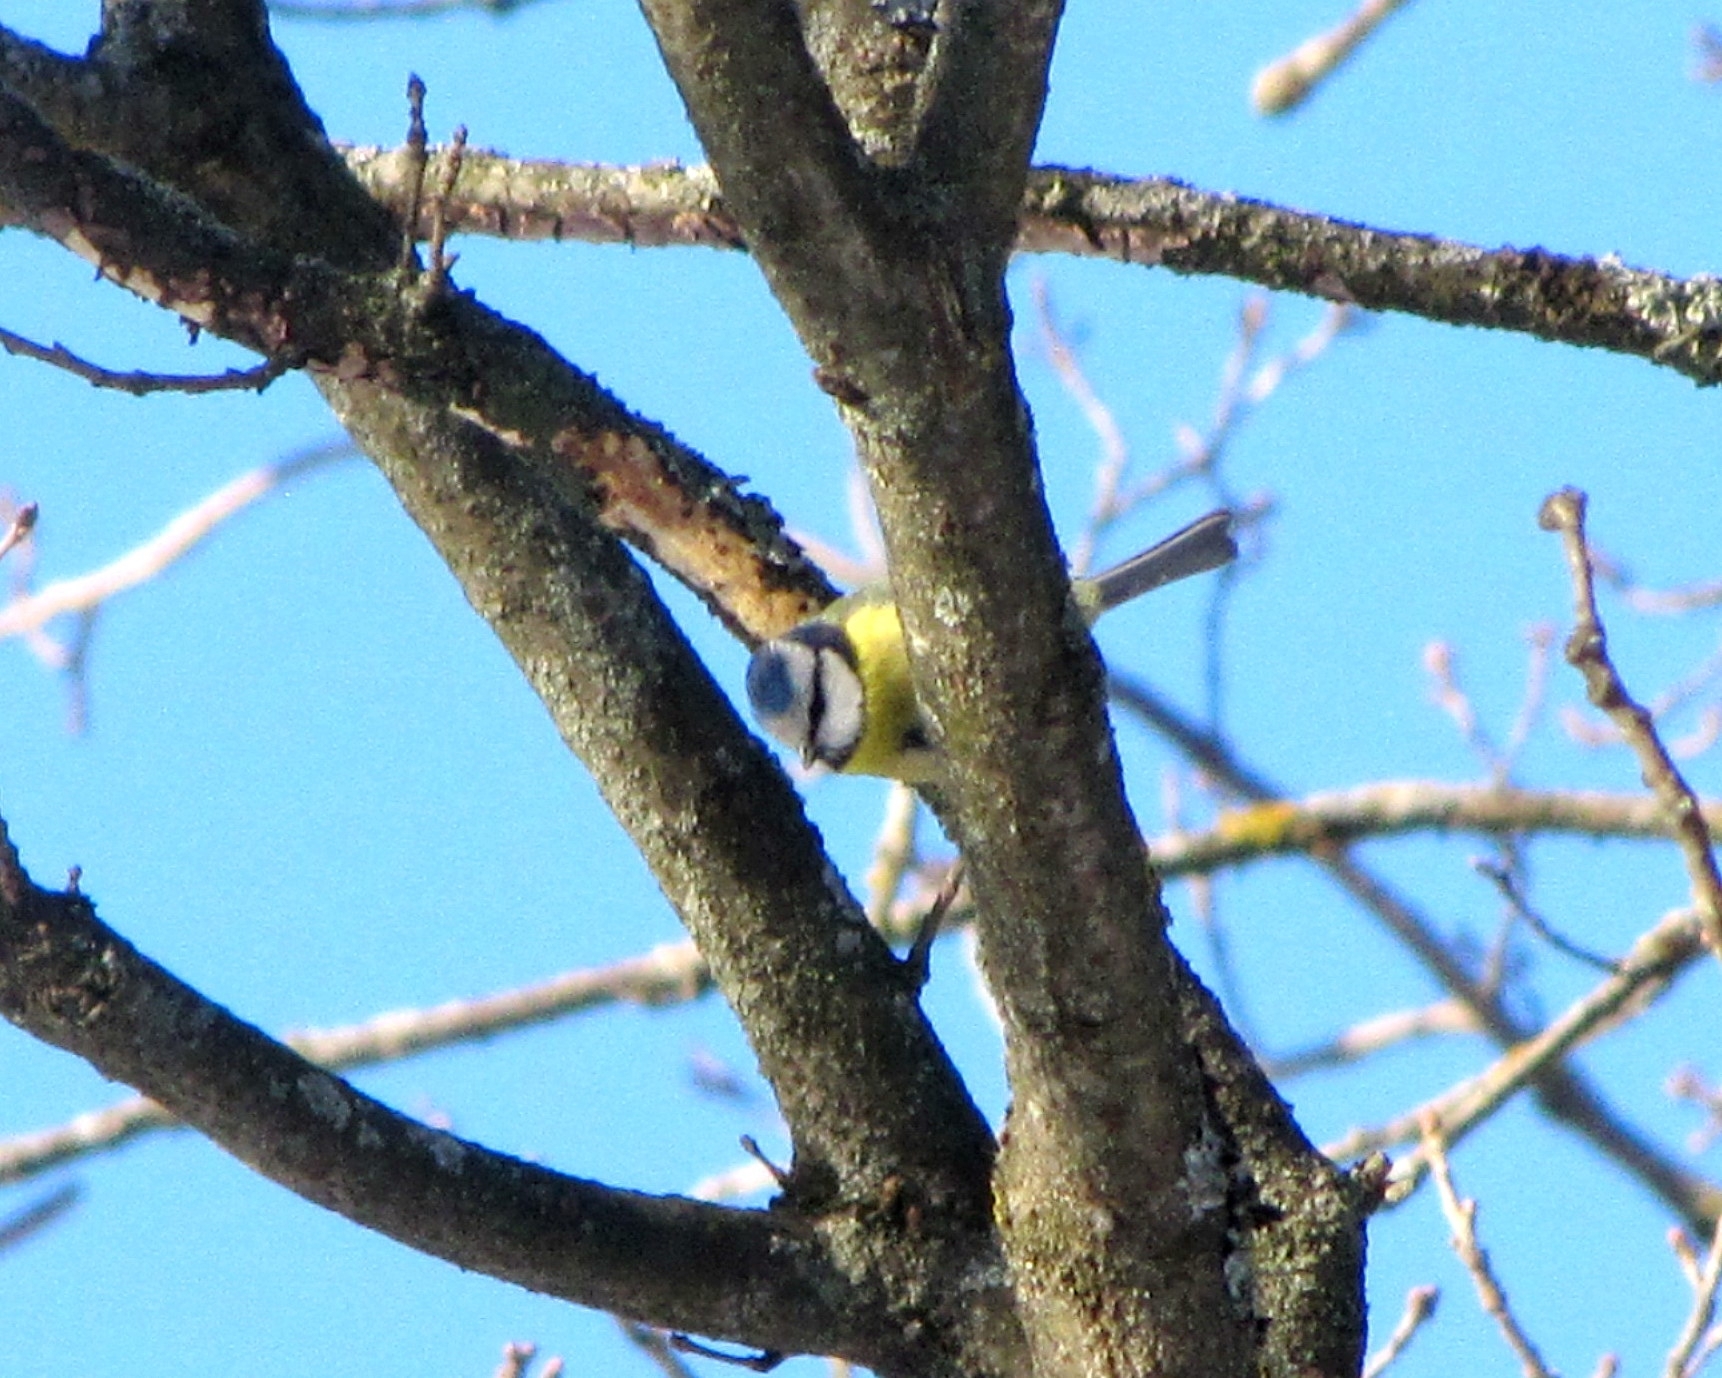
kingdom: Animalia
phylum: Chordata
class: Aves
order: Passeriformes
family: Paridae
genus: Cyanistes
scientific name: Cyanistes caeruleus
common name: Eurasian blue tit
